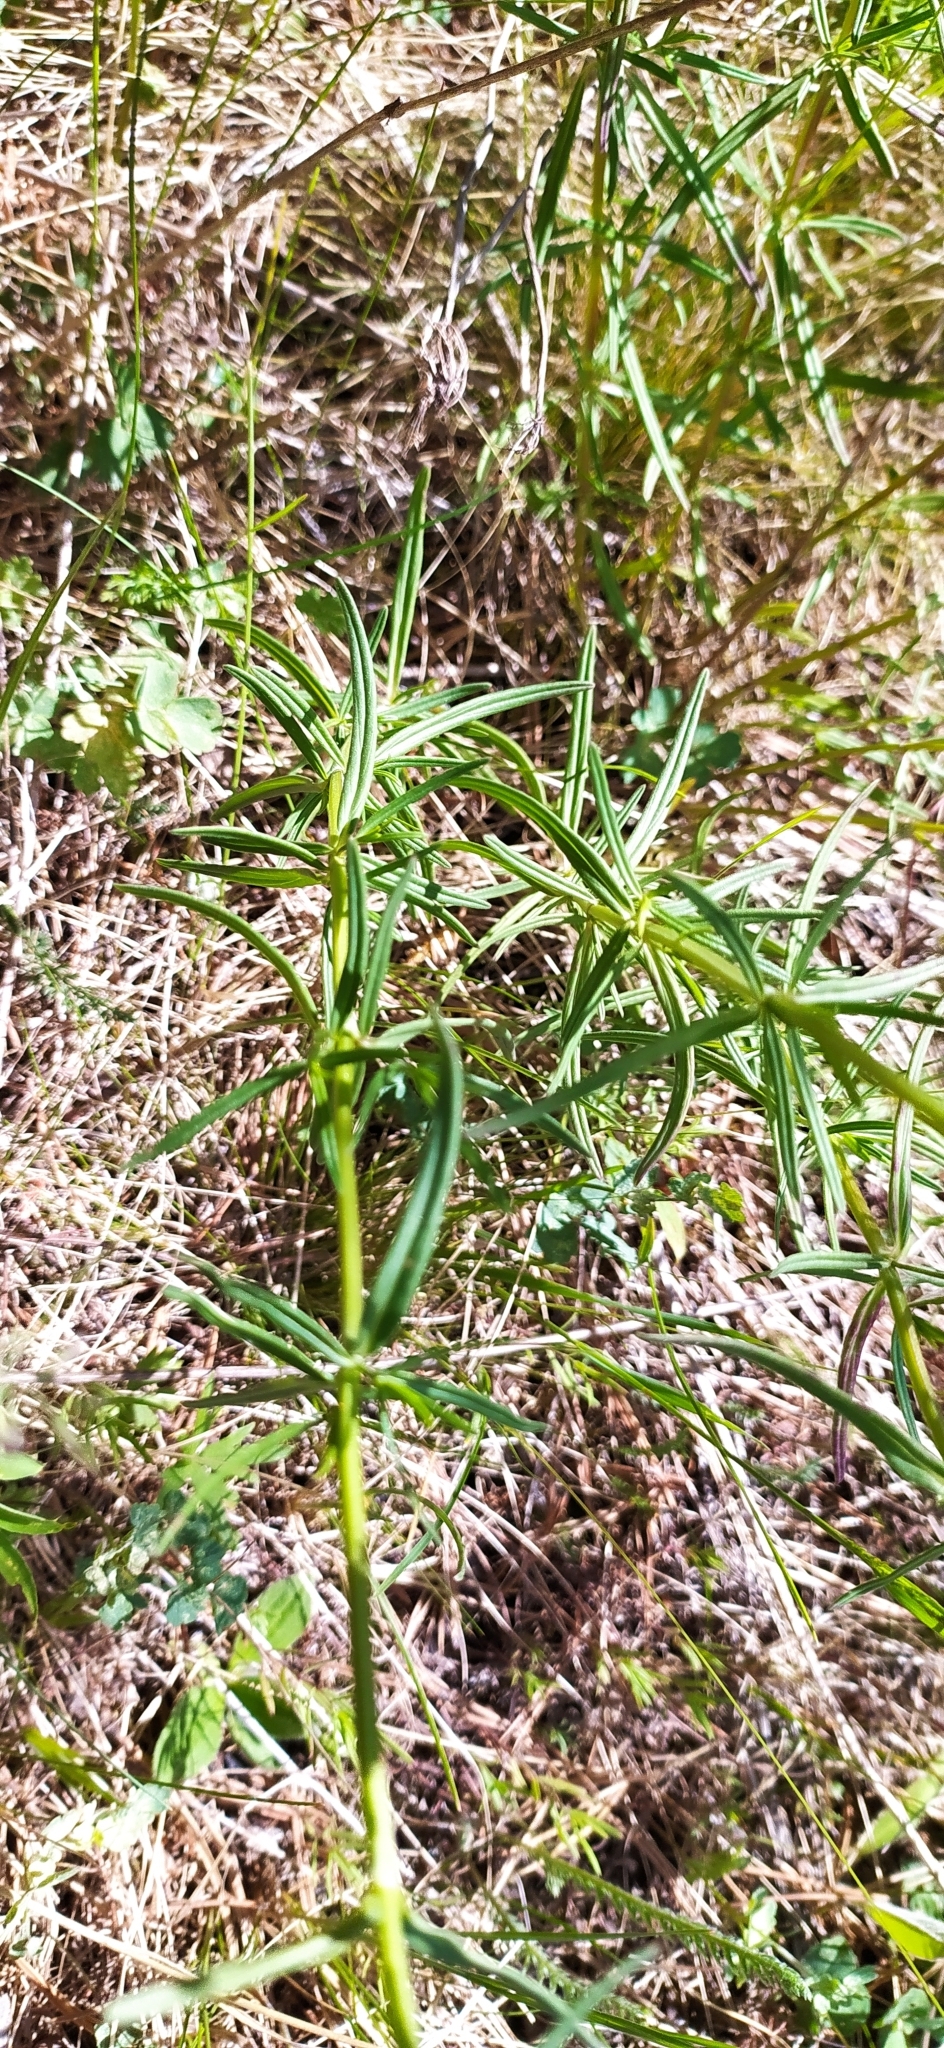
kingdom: Plantae
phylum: Tracheophyta
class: Magnoliopsida
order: Lamiales
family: Lamiaceae
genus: Dracocephalum
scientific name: Dracocephalum ruyschiana
